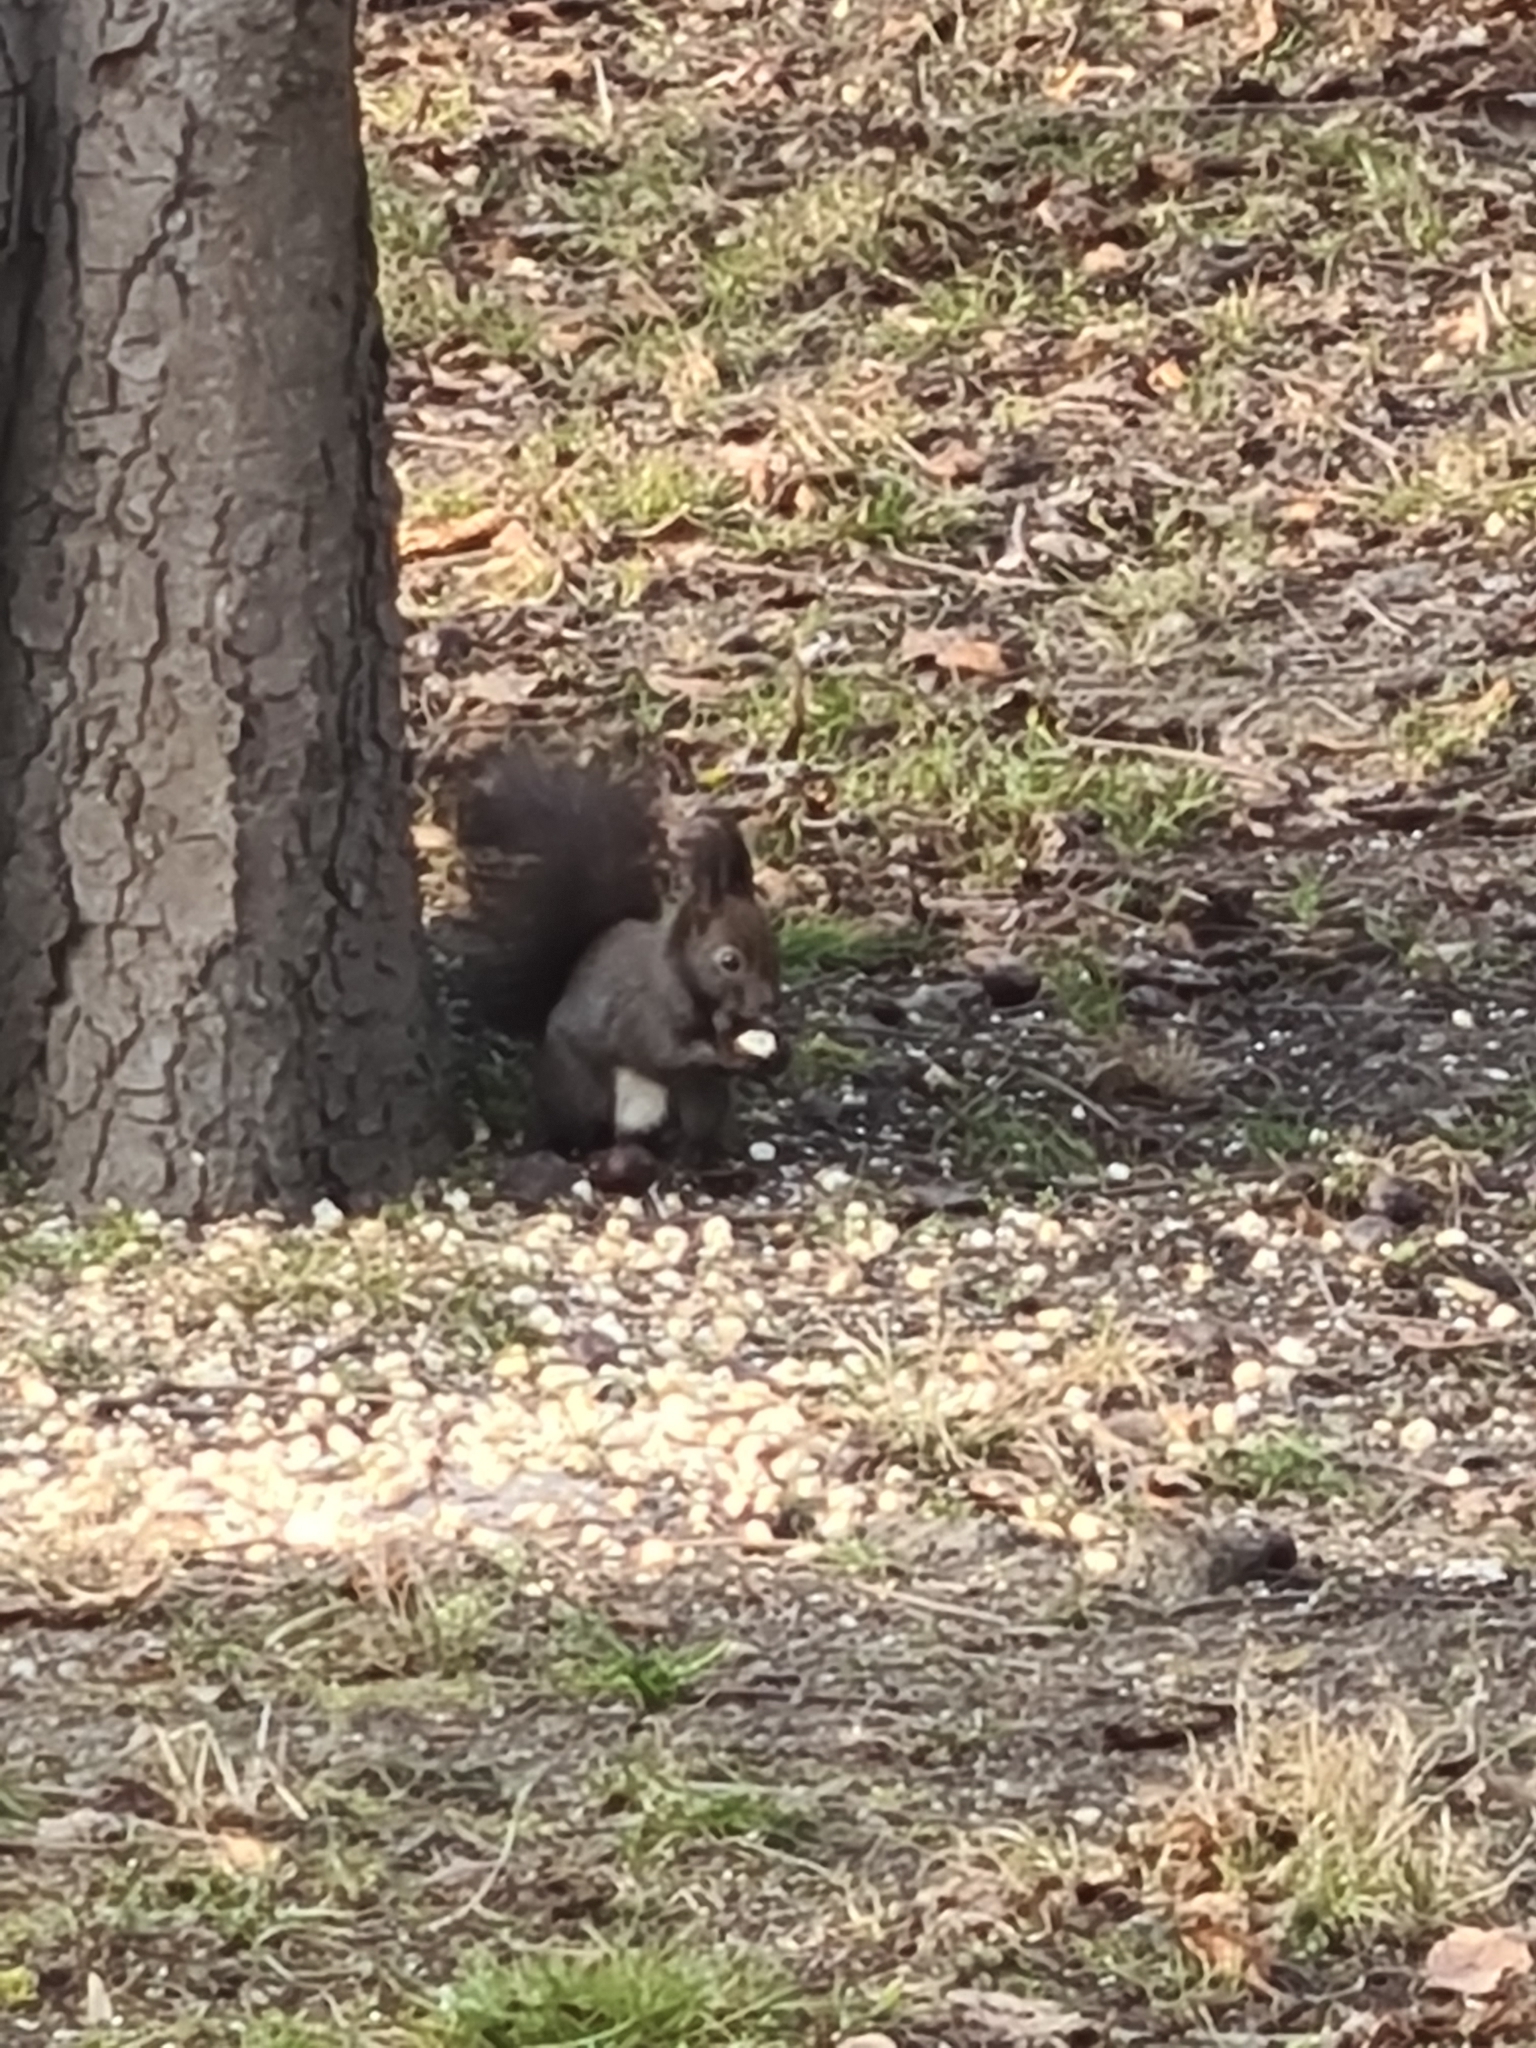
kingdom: Animalia
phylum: Chordata
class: Mammalia
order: Rodentia
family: Sciuridae
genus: Sciurus
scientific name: Sciurus vulgaris
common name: Eurasian red squirrel
